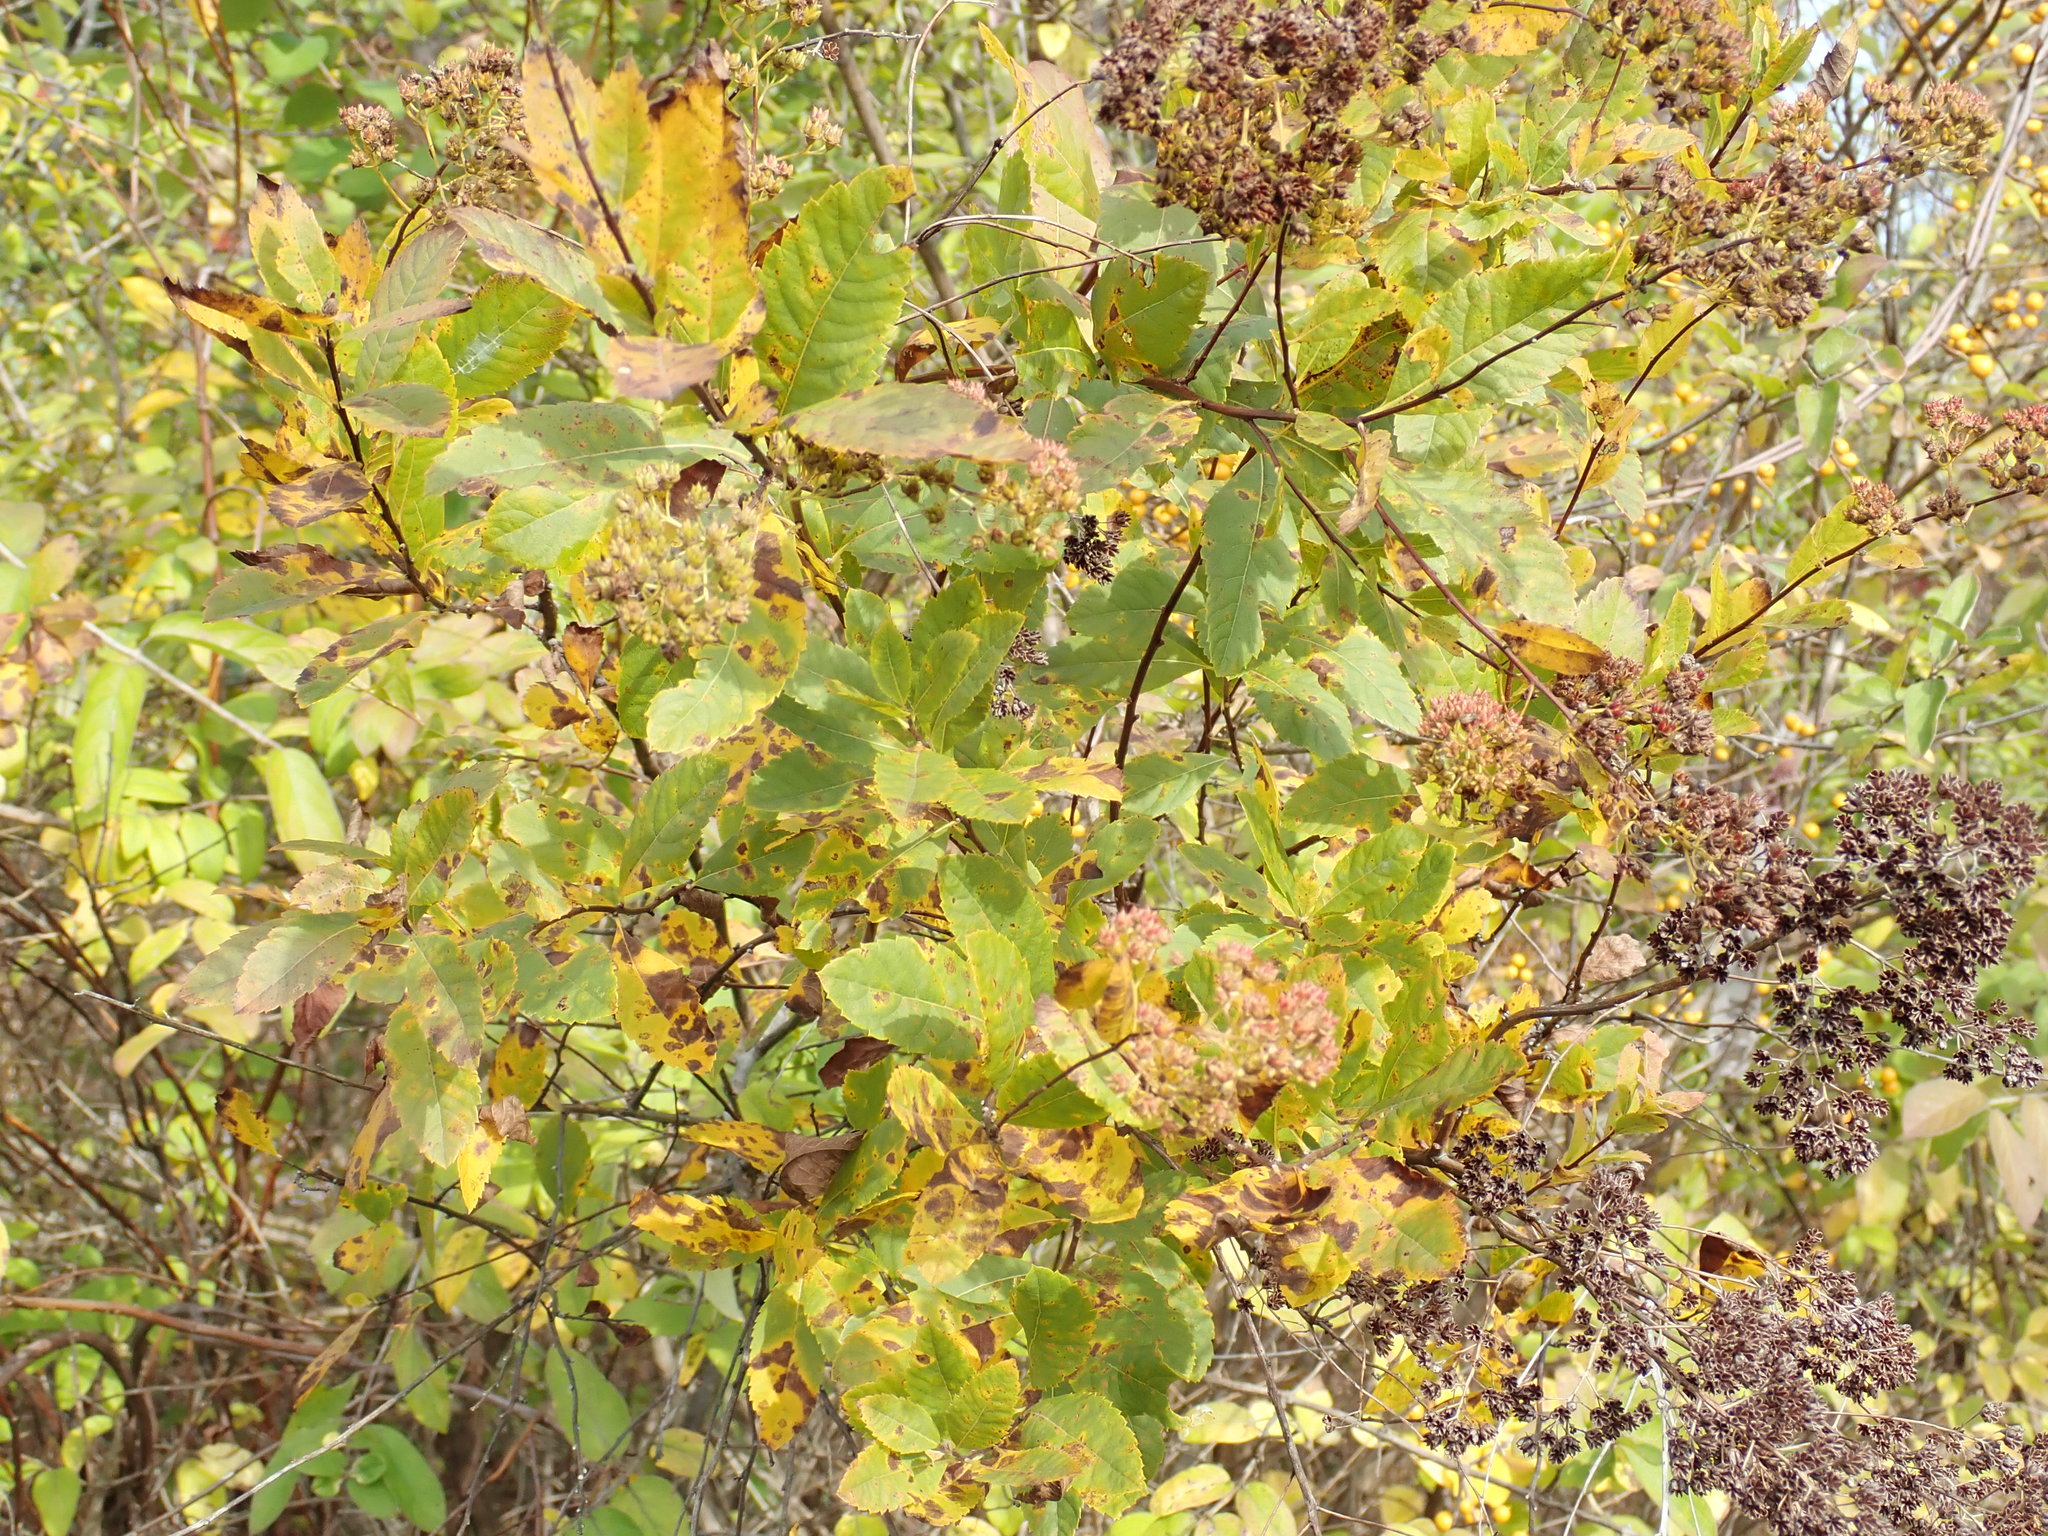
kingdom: Plantae
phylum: Tracheophyta
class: Magnoliopsida
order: Rosales
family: Rosaceae
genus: Spiraea
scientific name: Spiraea alba
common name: Pale bridewort
